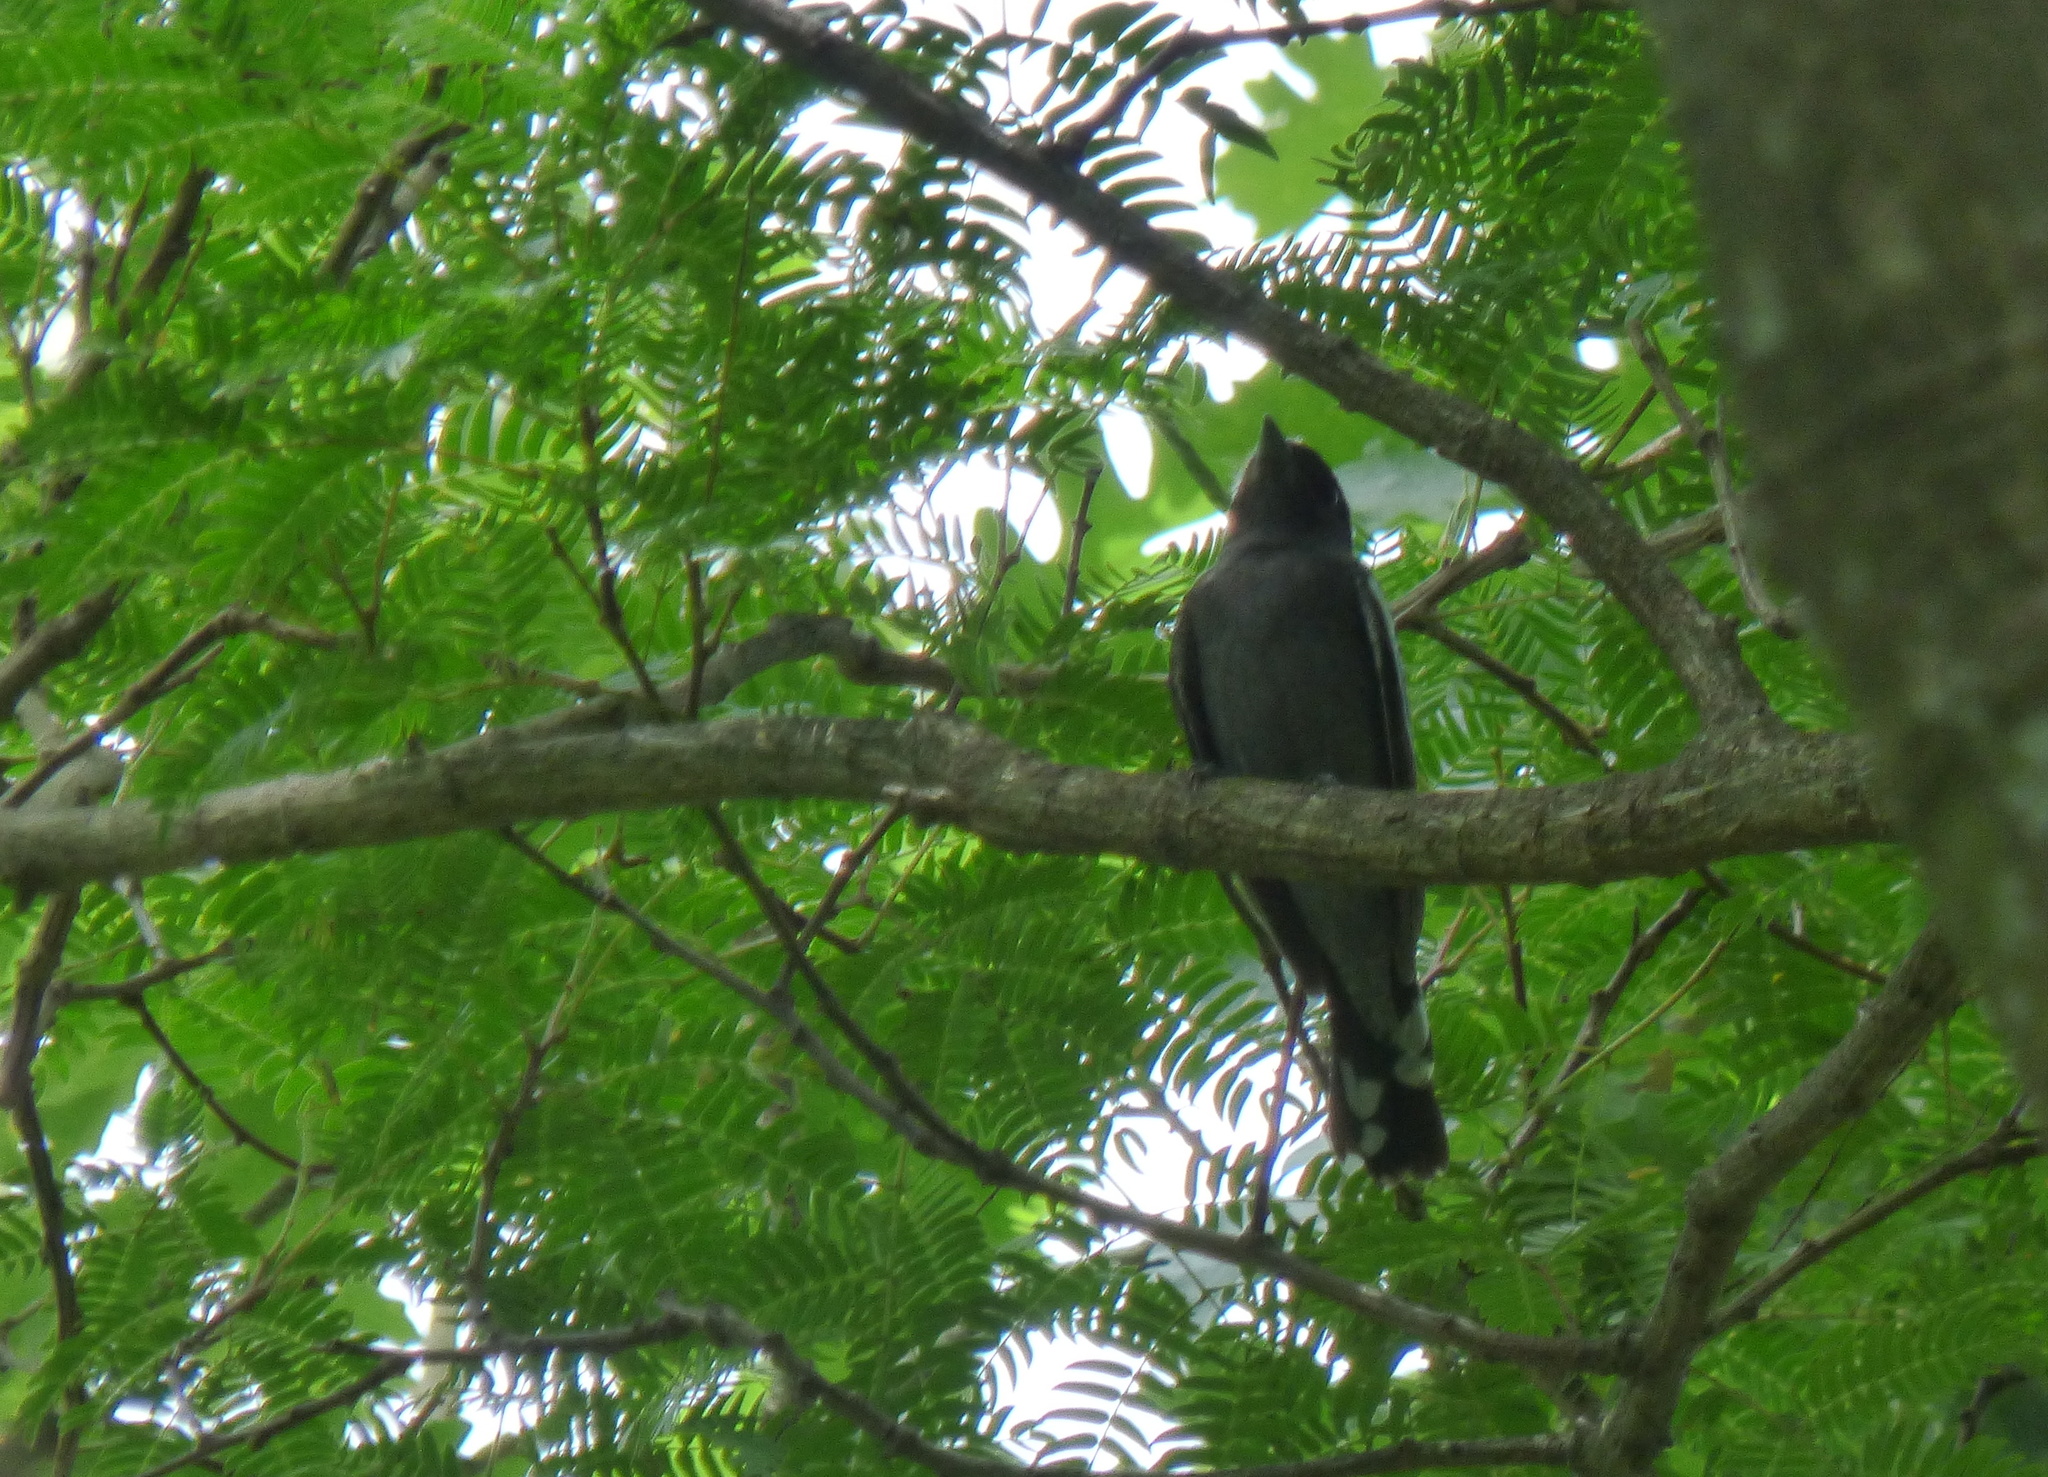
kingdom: Animalia
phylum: Chordata
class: Aves
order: Passeriformes
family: Cotingidae
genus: Pachyramphus
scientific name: Pachyramphus polychopterus
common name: White-winged becard
